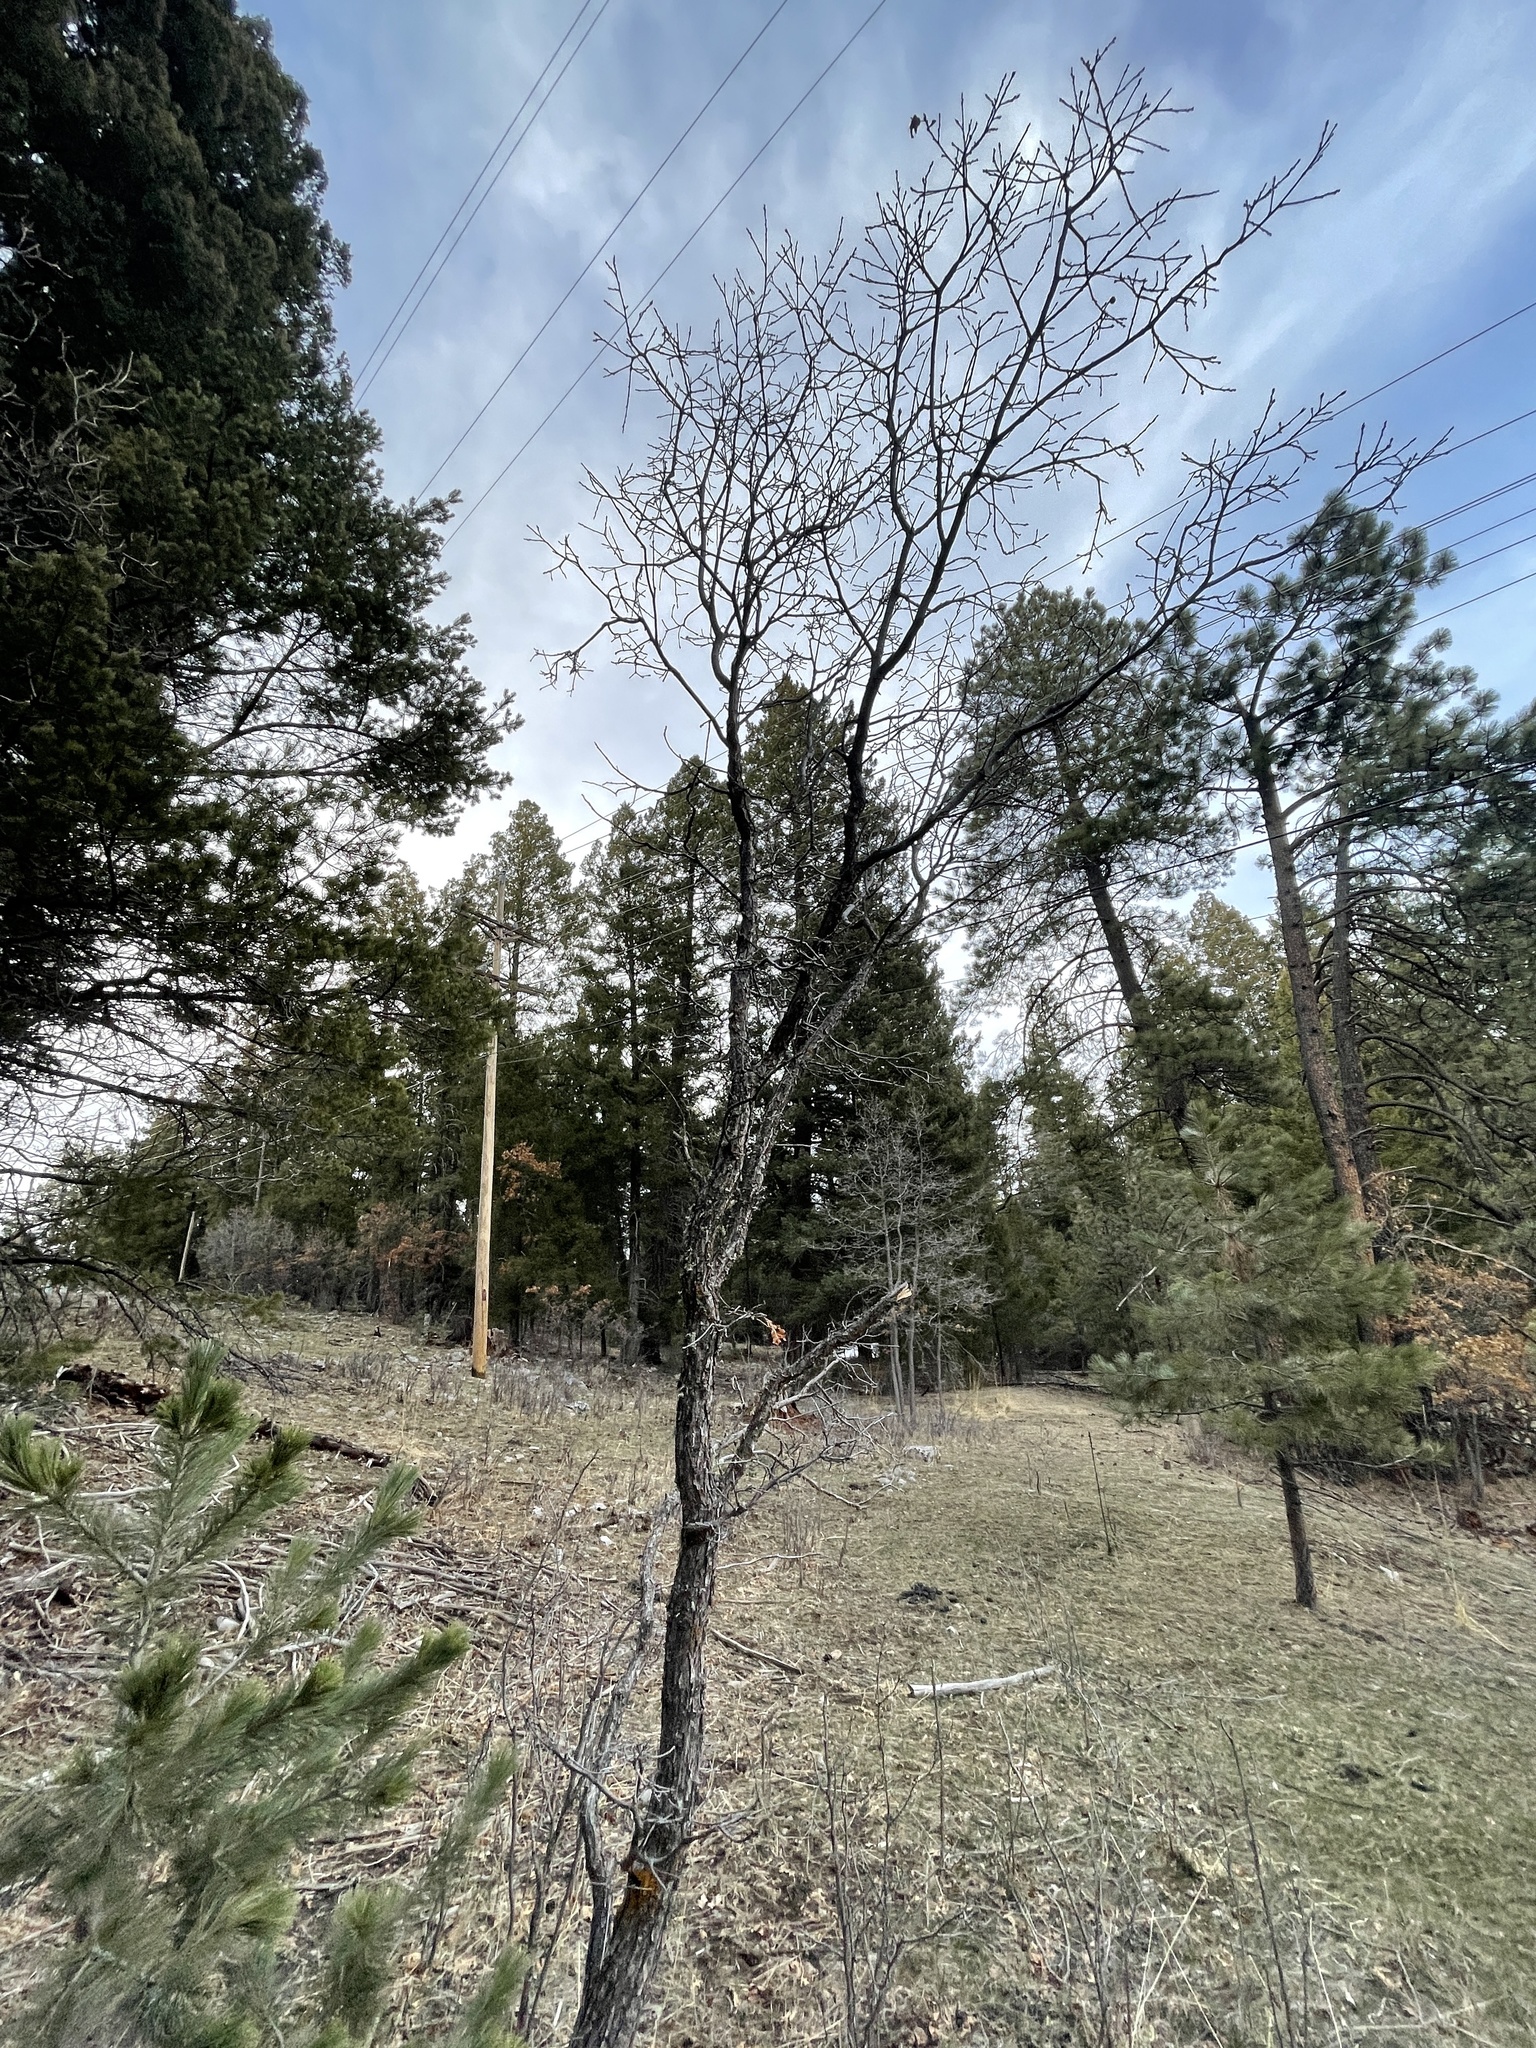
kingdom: Plantae
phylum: Tracheophyta
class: Magnoliopsida
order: Fagales
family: Fagaceae
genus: Quercus
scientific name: Quercus gambelii
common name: Gambel oak
